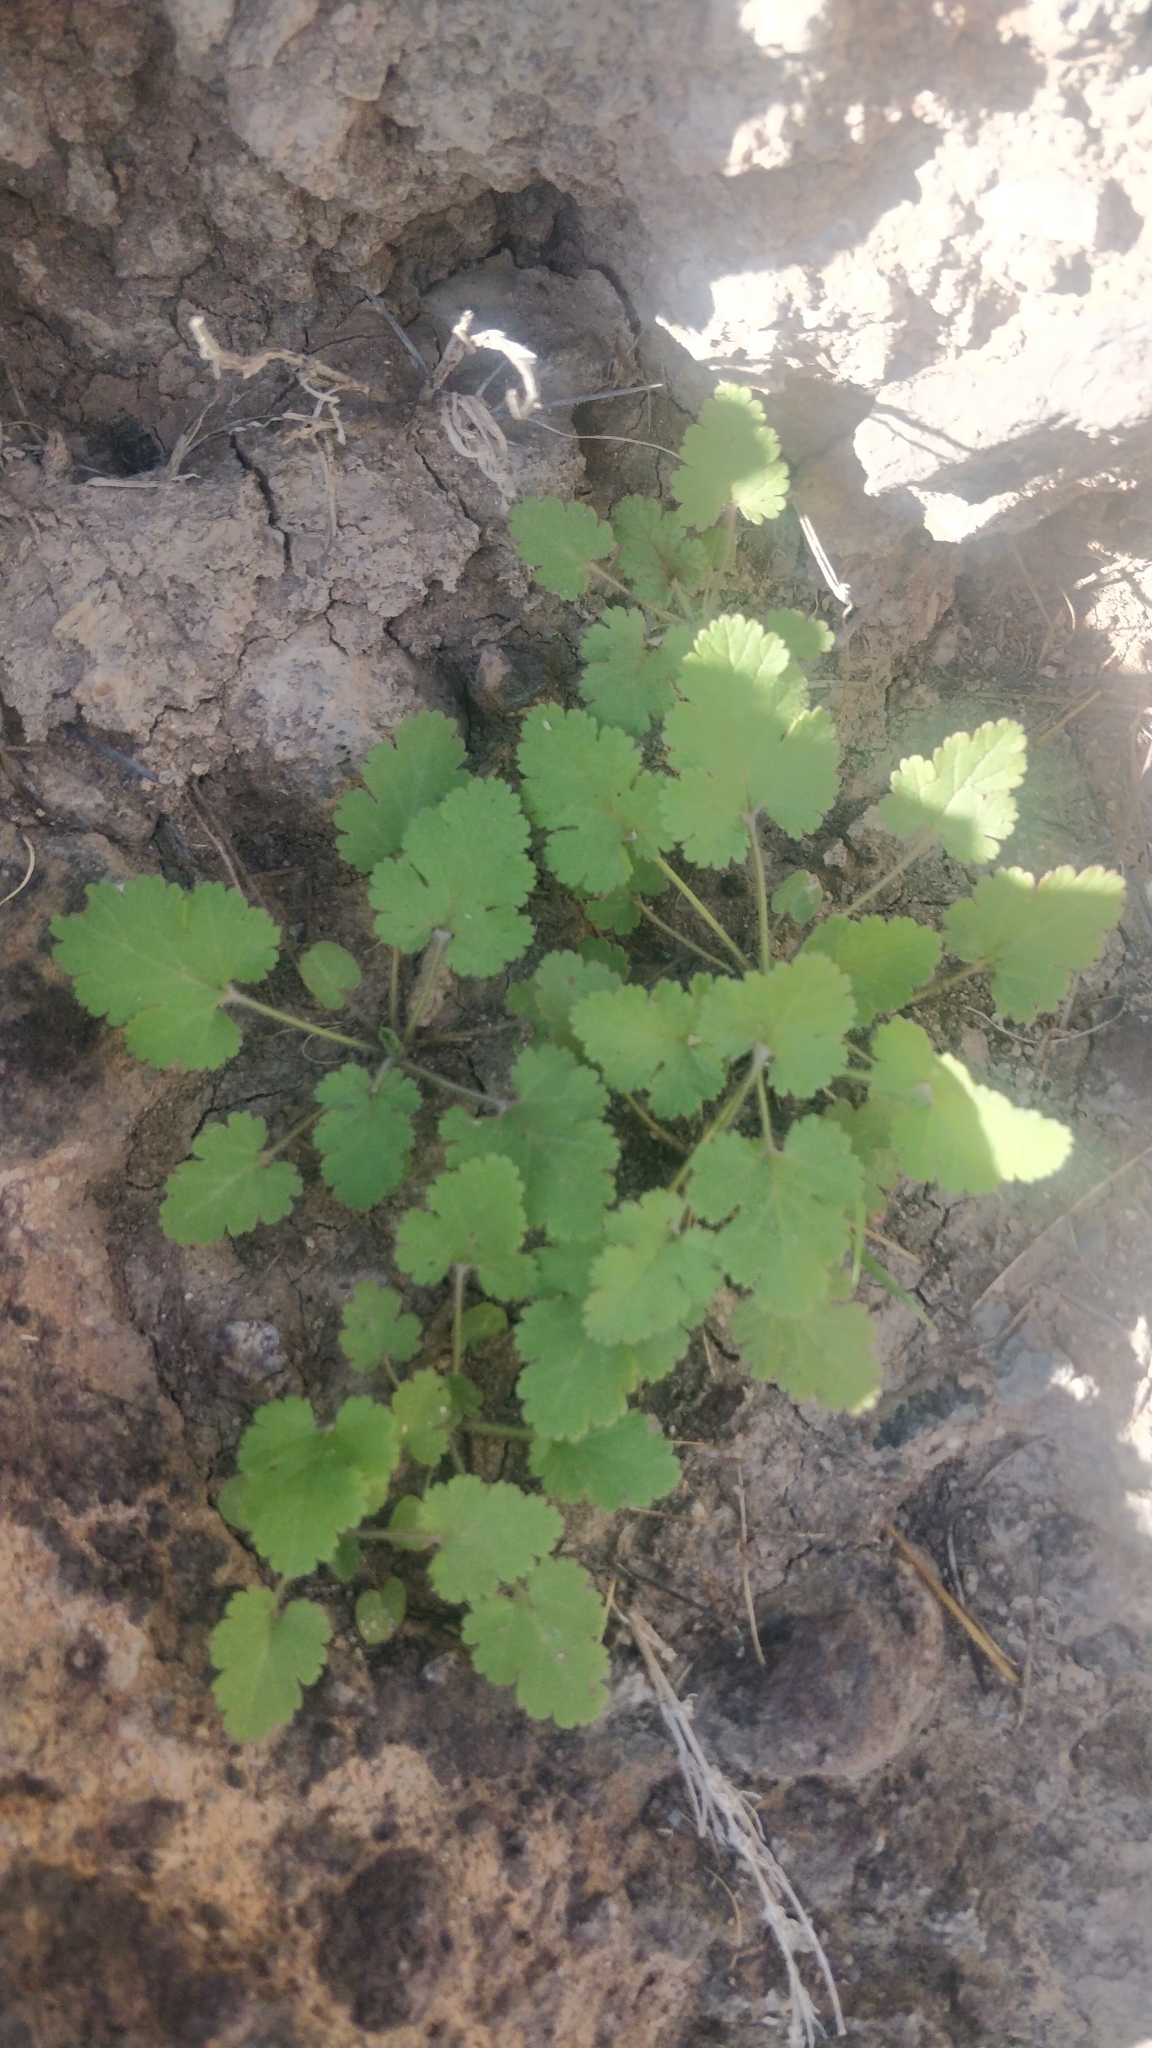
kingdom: Plantae
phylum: Tracheophyta
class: Magnoliopsida
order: Geraniales
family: Geraniaceae
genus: Erodium
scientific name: Erodium malacoides
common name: Soft stork's-bill
